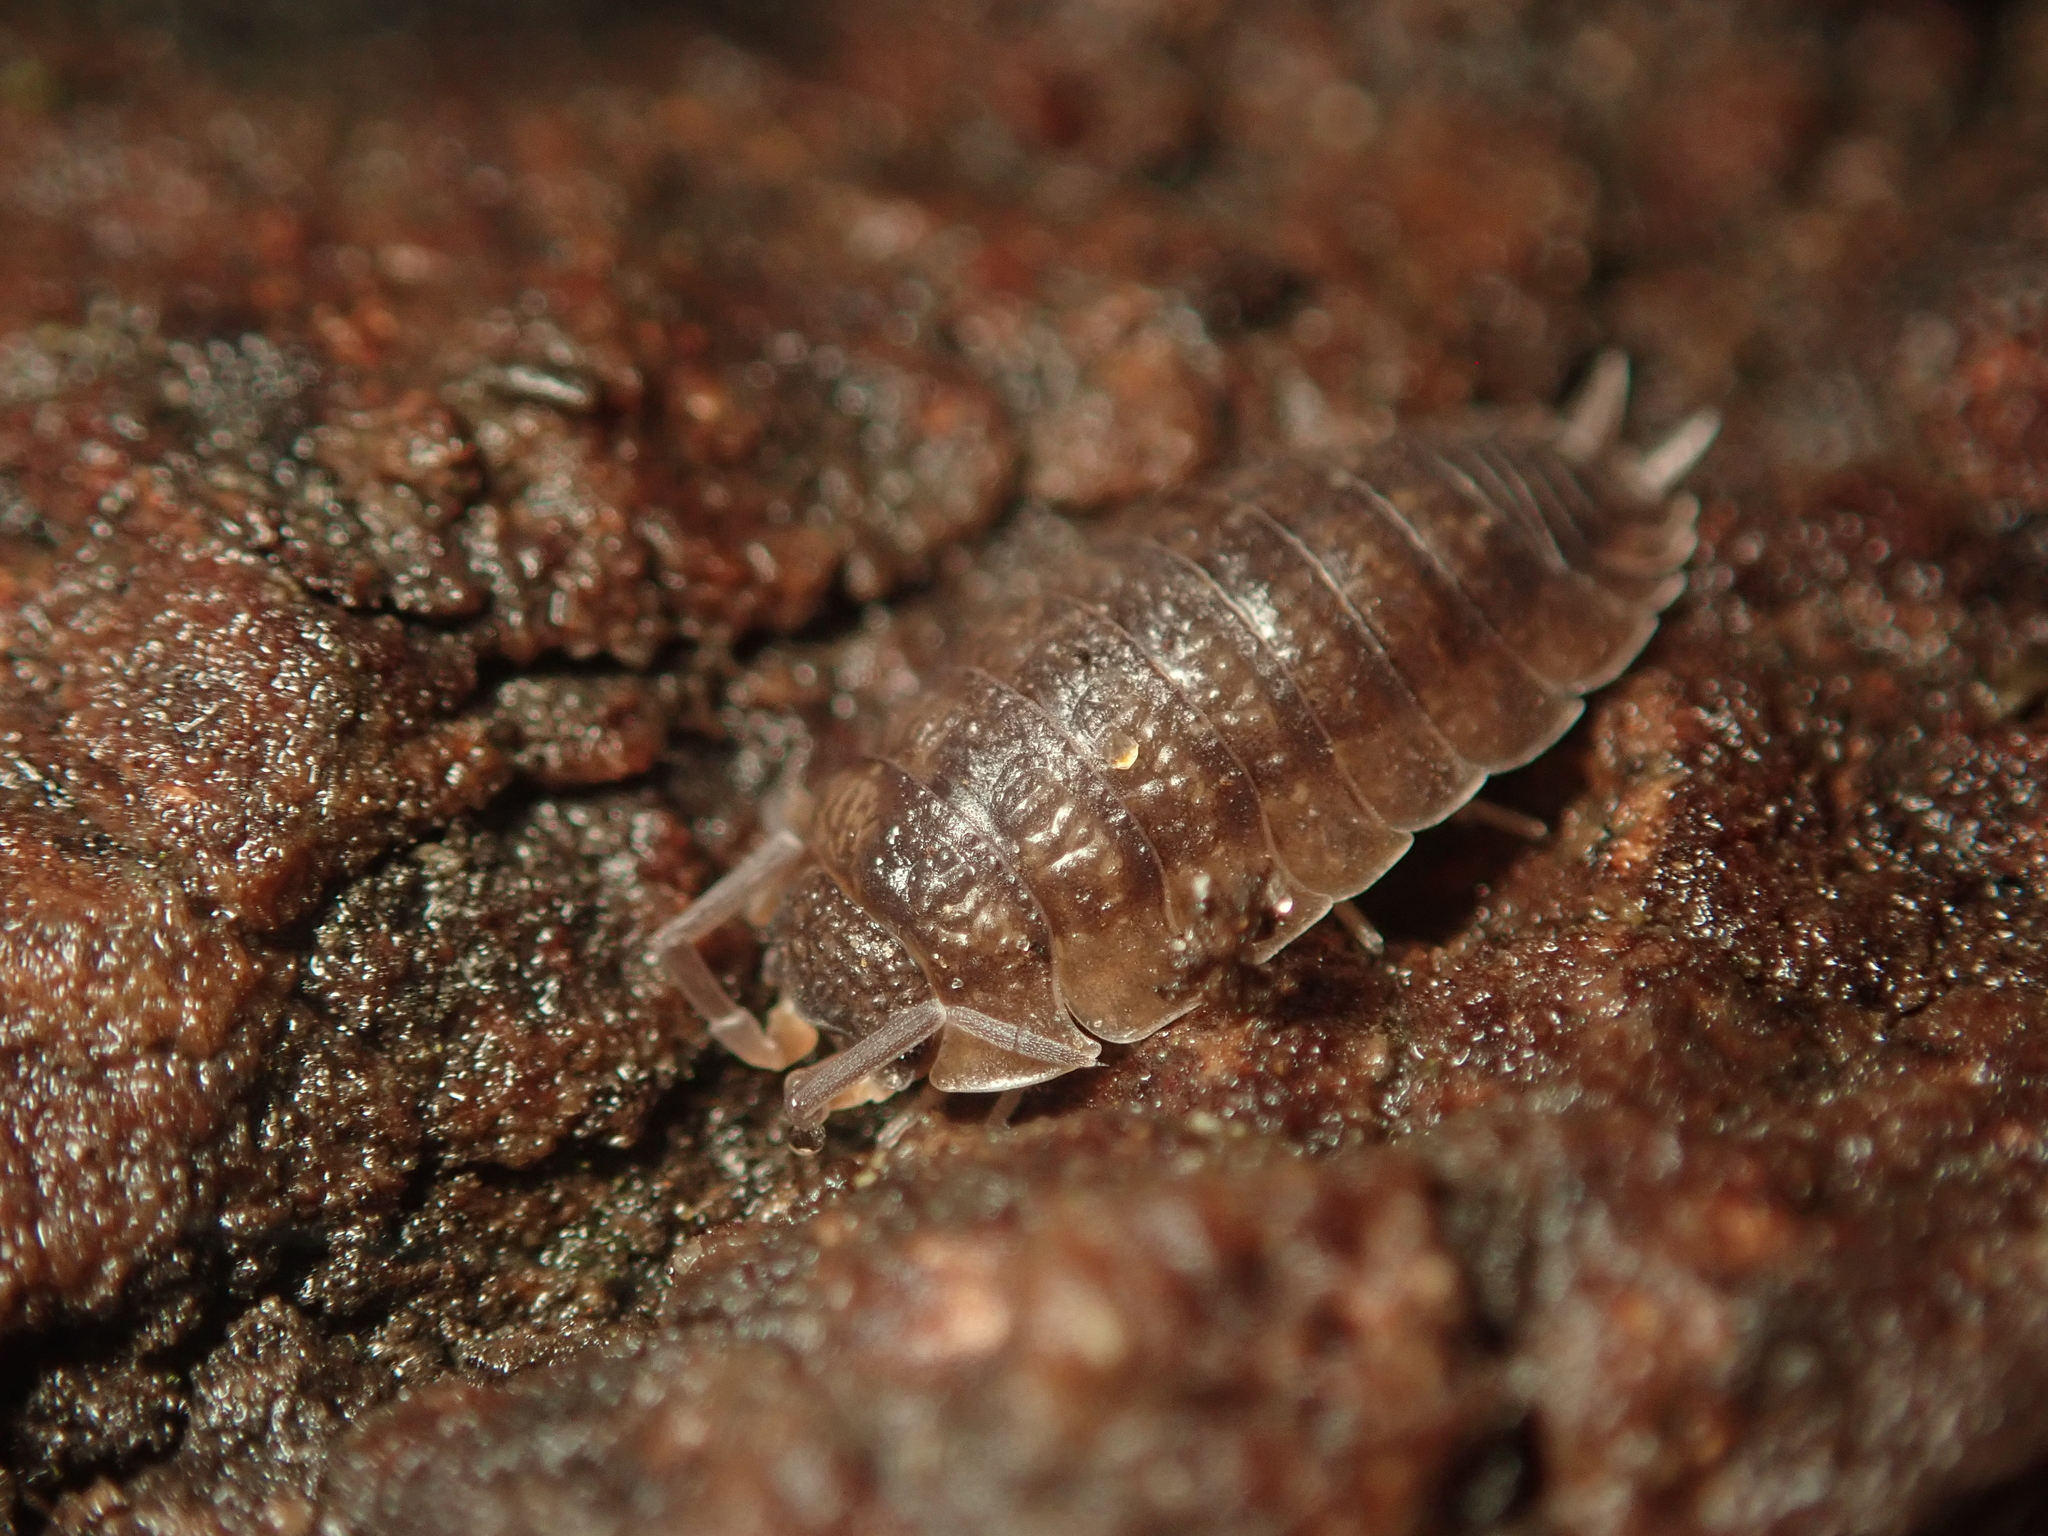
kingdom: Animalia
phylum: Arthropoda
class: Malacostraca
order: Isopoda
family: Porcellionidae
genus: Porcellio
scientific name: Porcellio scaber
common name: Common rough woodlouse
